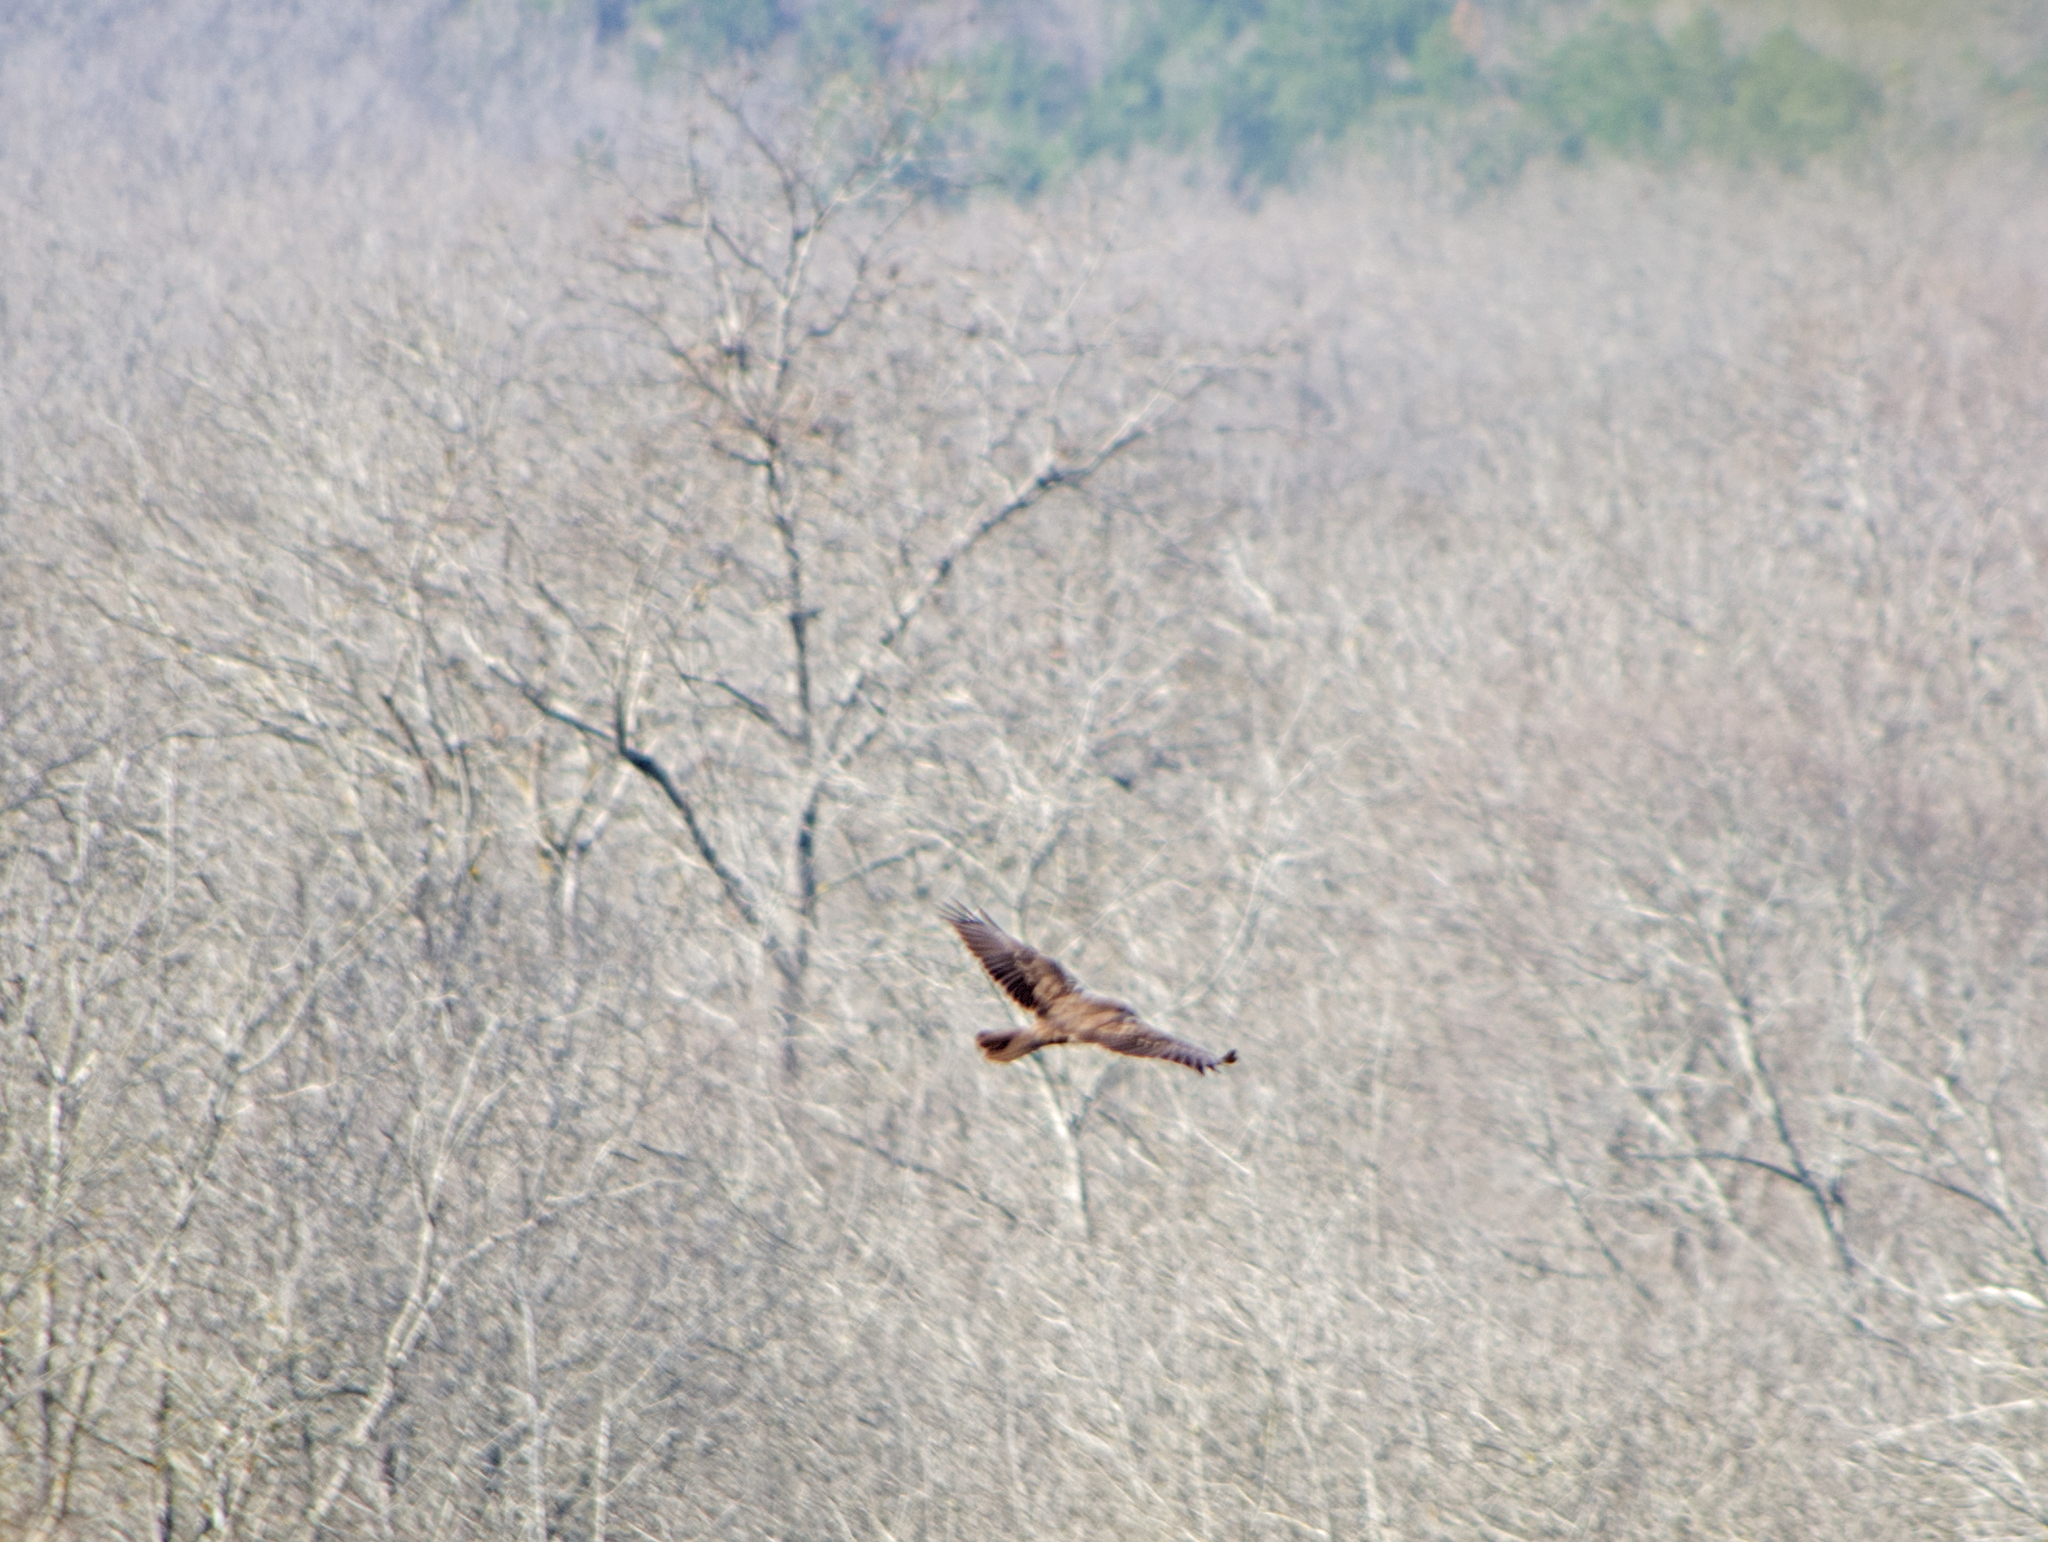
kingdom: Animalia
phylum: Chordata
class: Aves
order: Accipitriformes
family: Accipitridae
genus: Circus
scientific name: Circus aeruginosus
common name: Western marsh harrier
